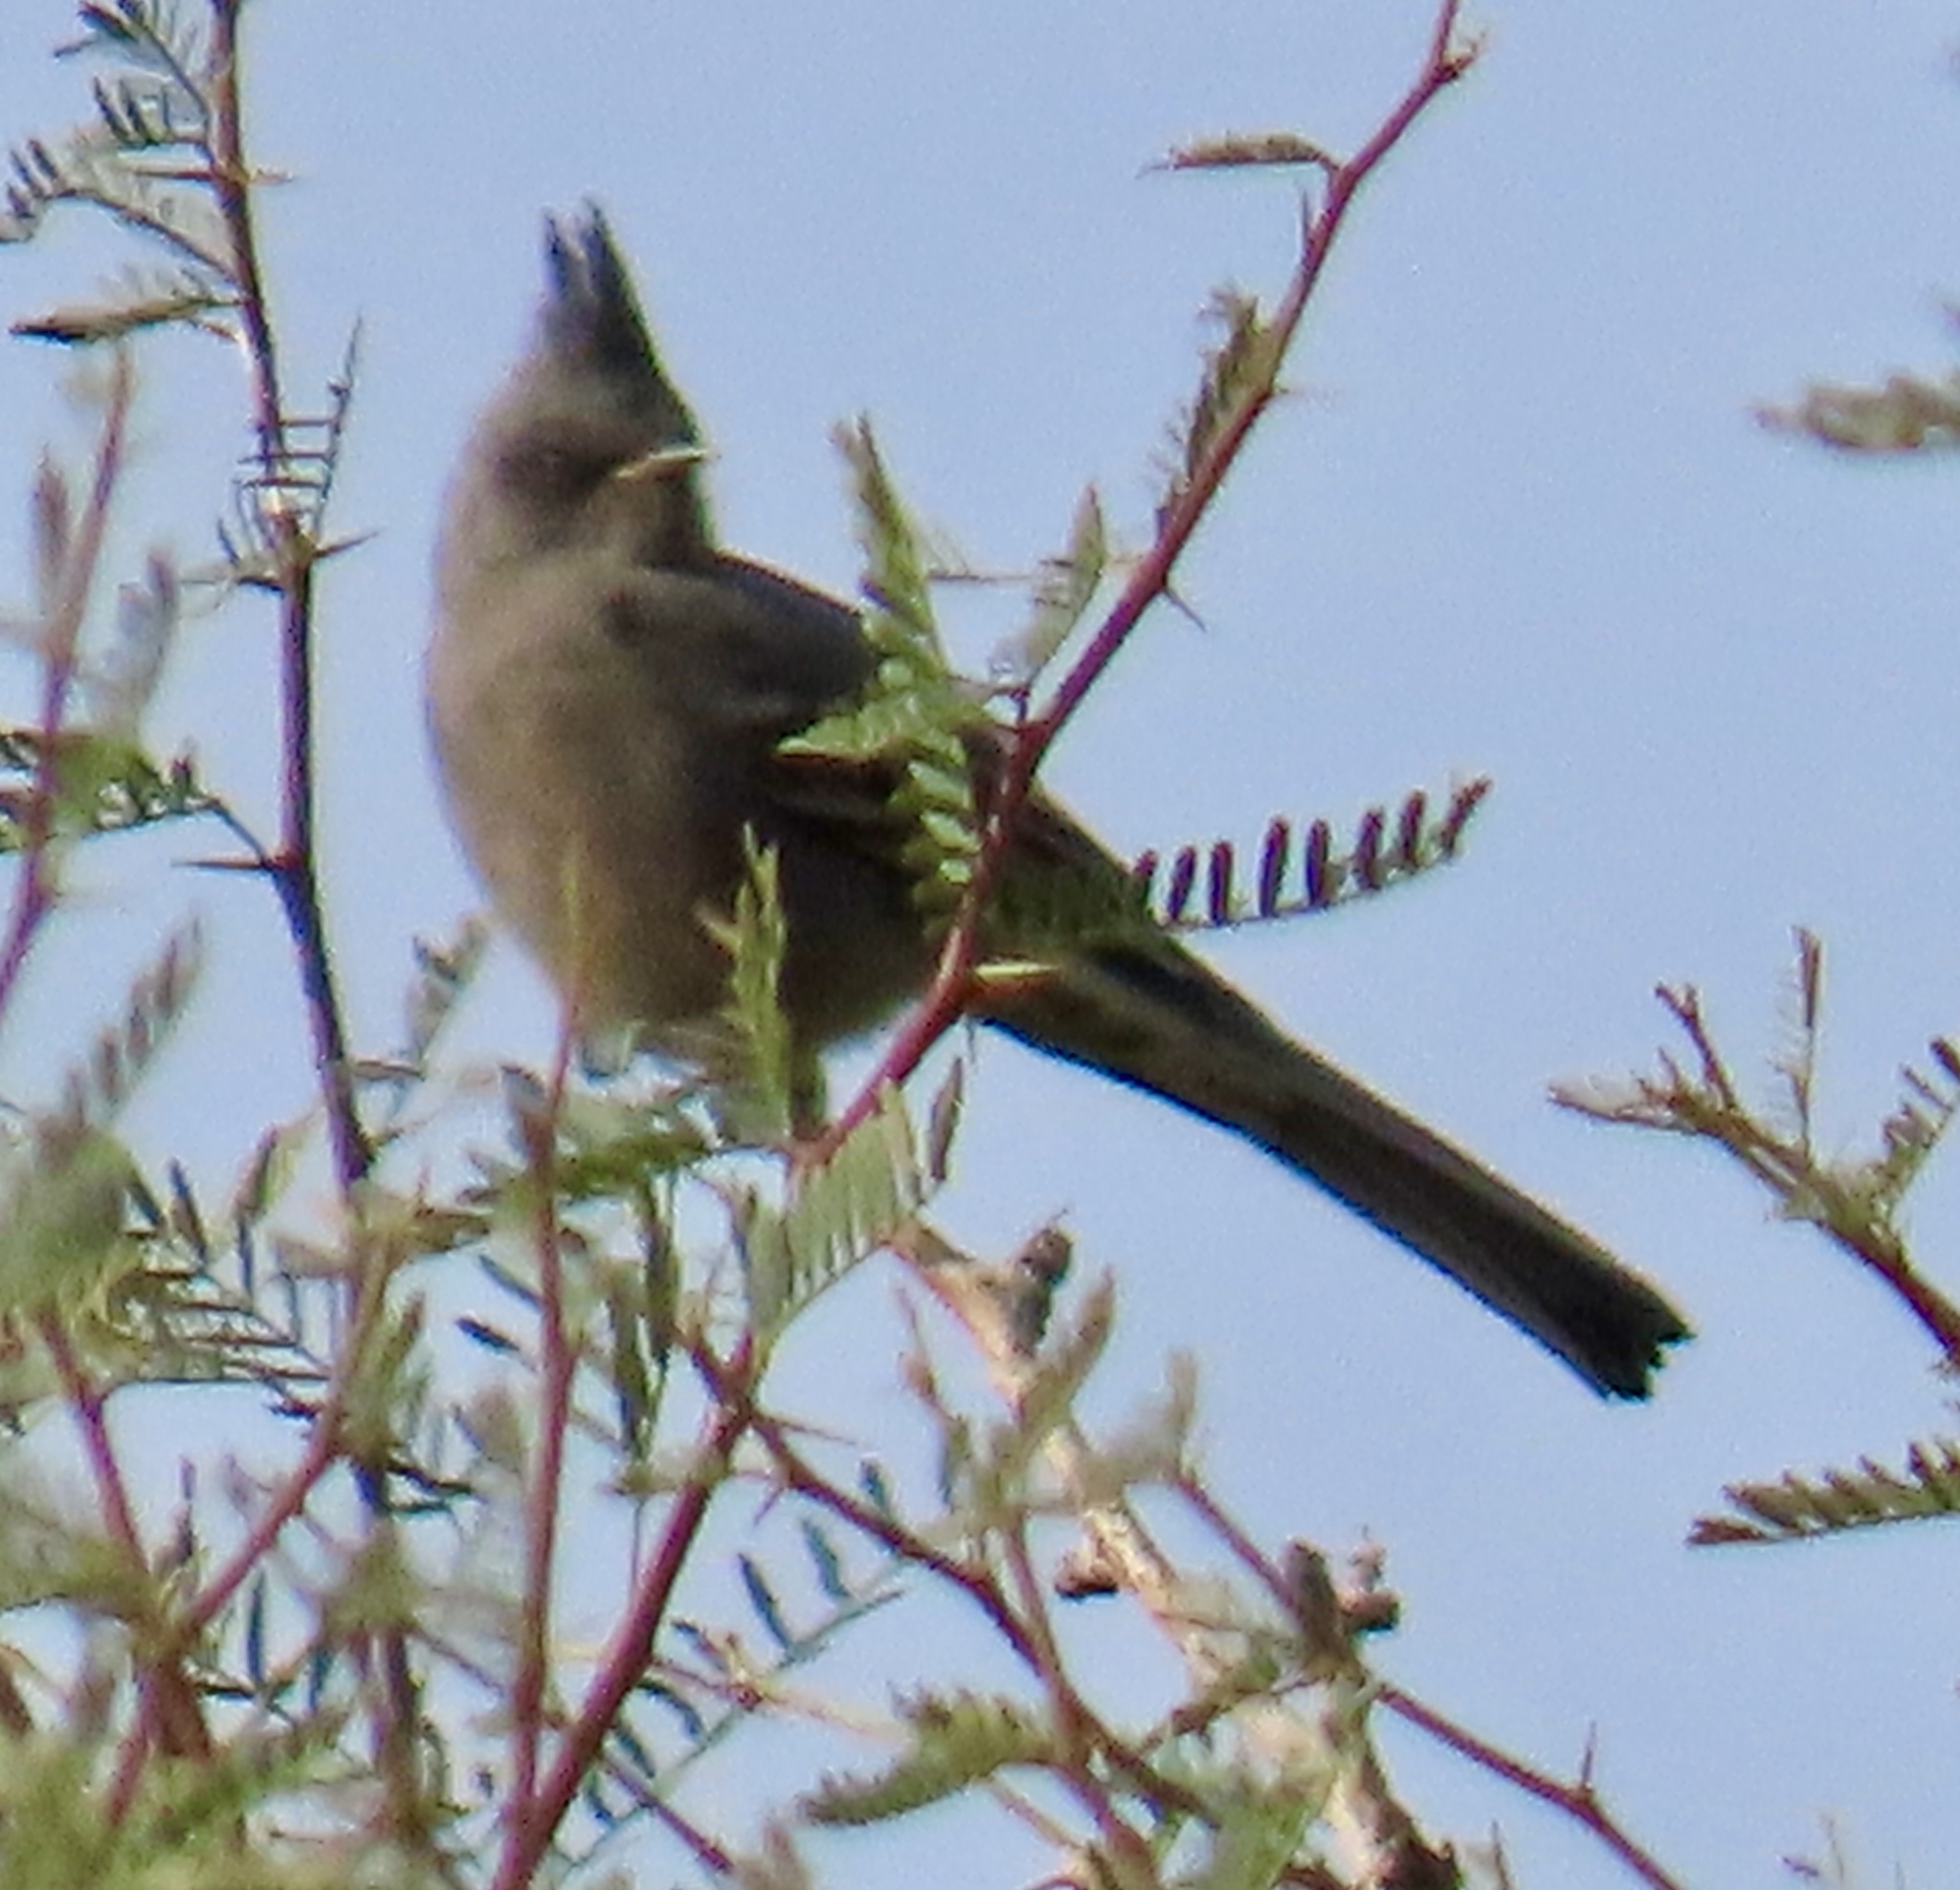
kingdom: Animalia
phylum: Chordata
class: Aves
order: Passeriformes
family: Ptilogonatidae
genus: Phainopepla
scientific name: Phainopepla nitens
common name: Phainopepla
